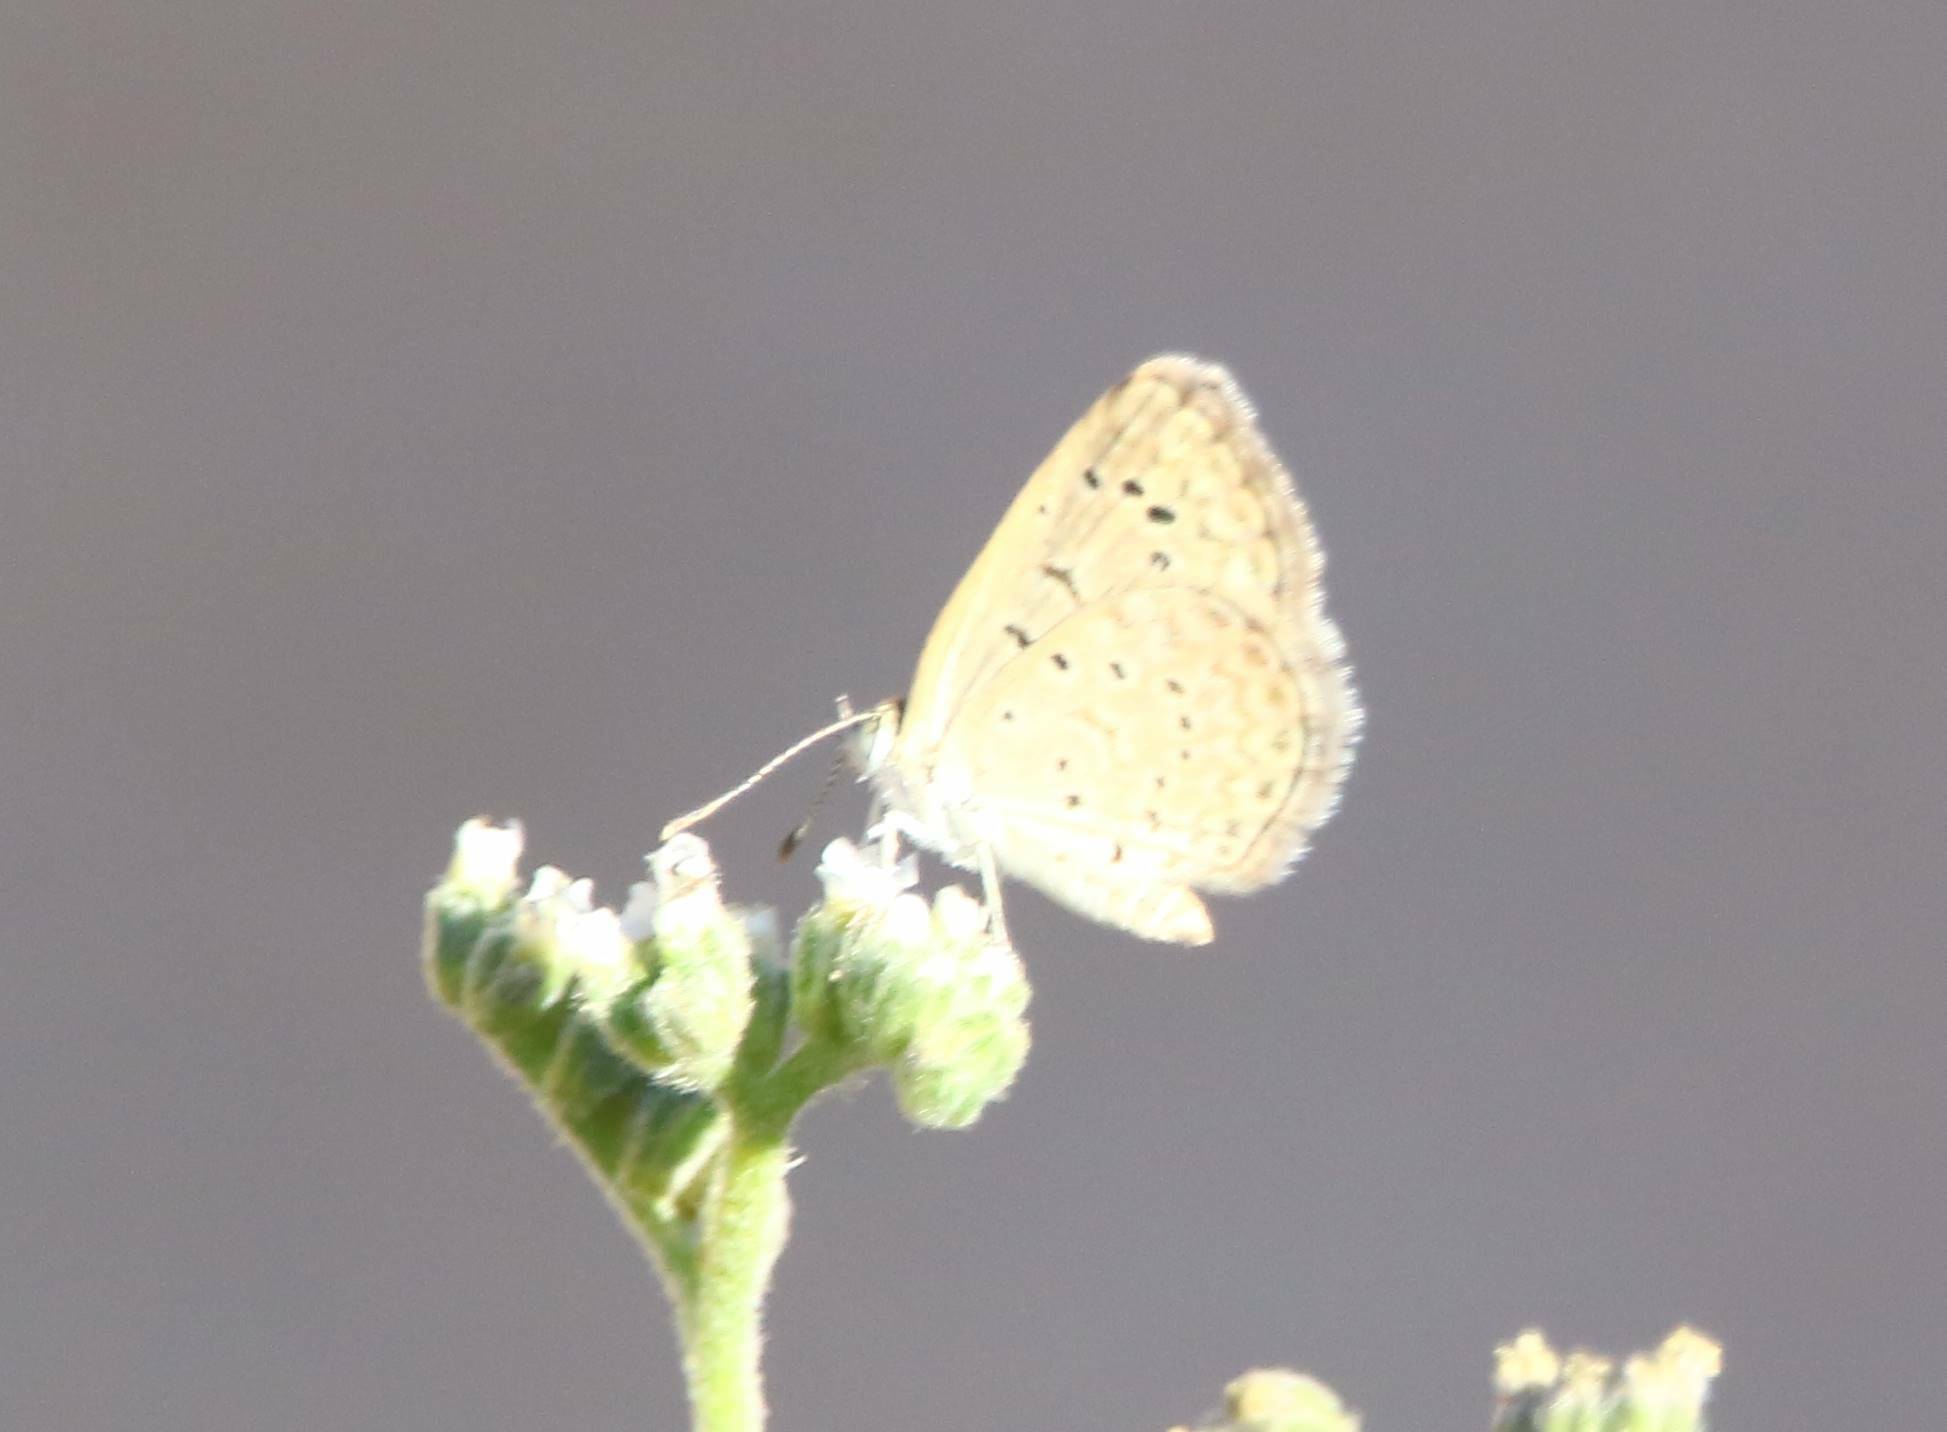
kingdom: Animalia
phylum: Arthropoda
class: Insecta
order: Lepidoptera
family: Lycaenidae
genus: Zizeeria
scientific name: Zizeeria knysna
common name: African grass blue
